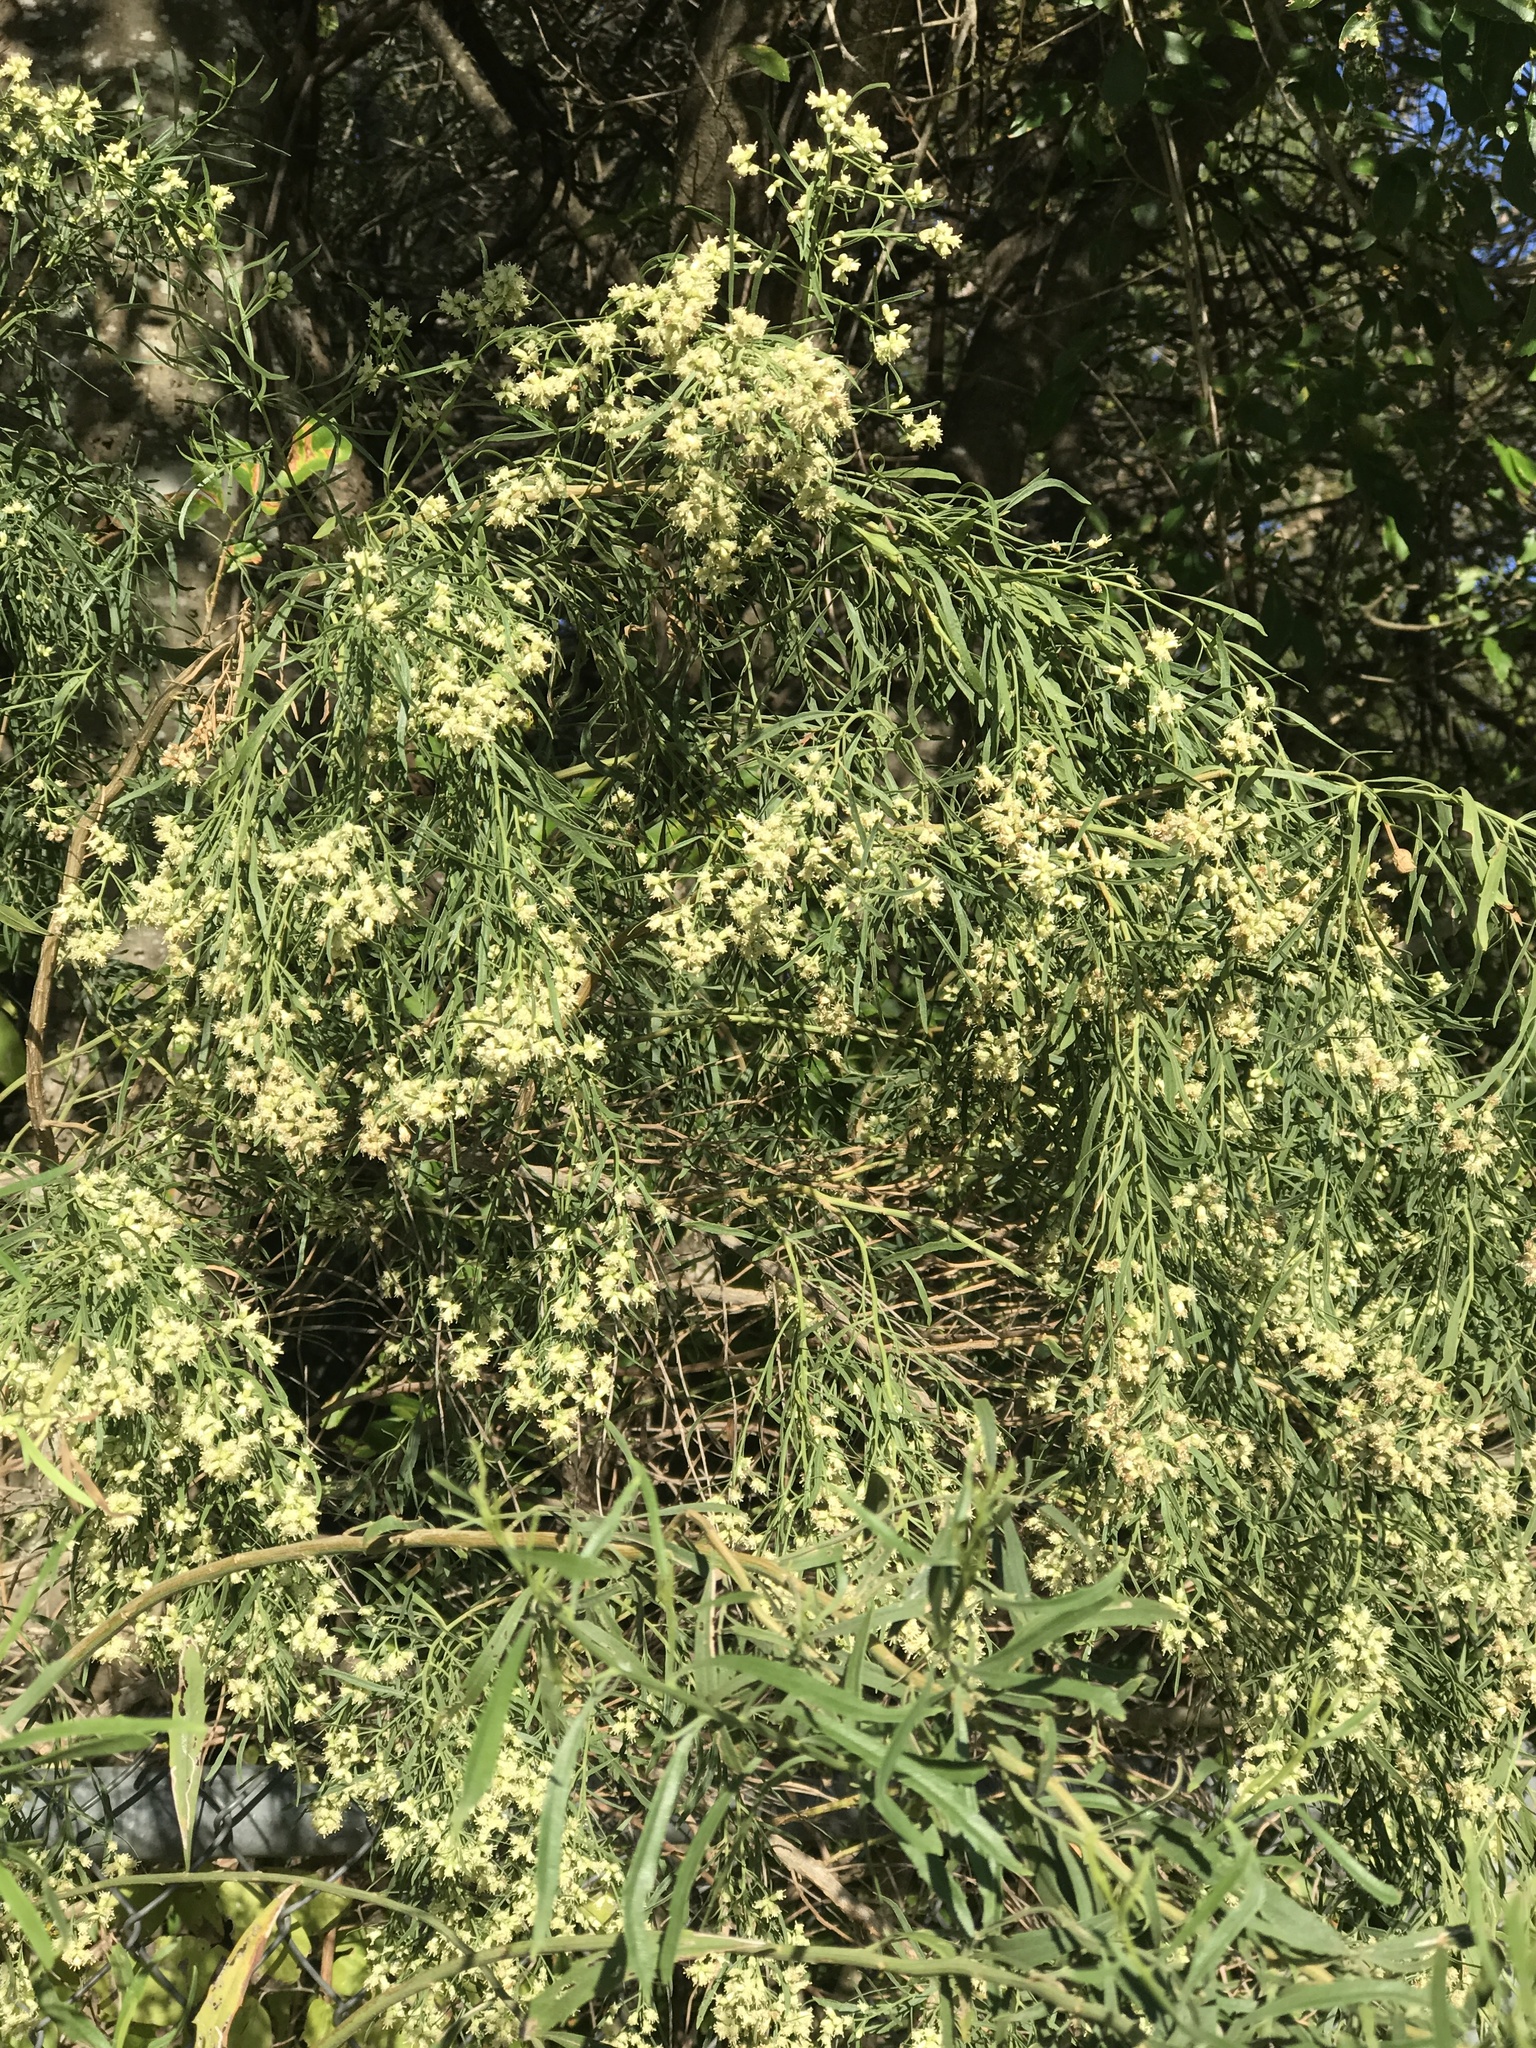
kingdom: Plantae
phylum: Tracheophyta
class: Magnoliopsida
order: Asterales
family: Asteraceae
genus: Baccharis
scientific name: Baccharis neglecta
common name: Roosevelt-weed
